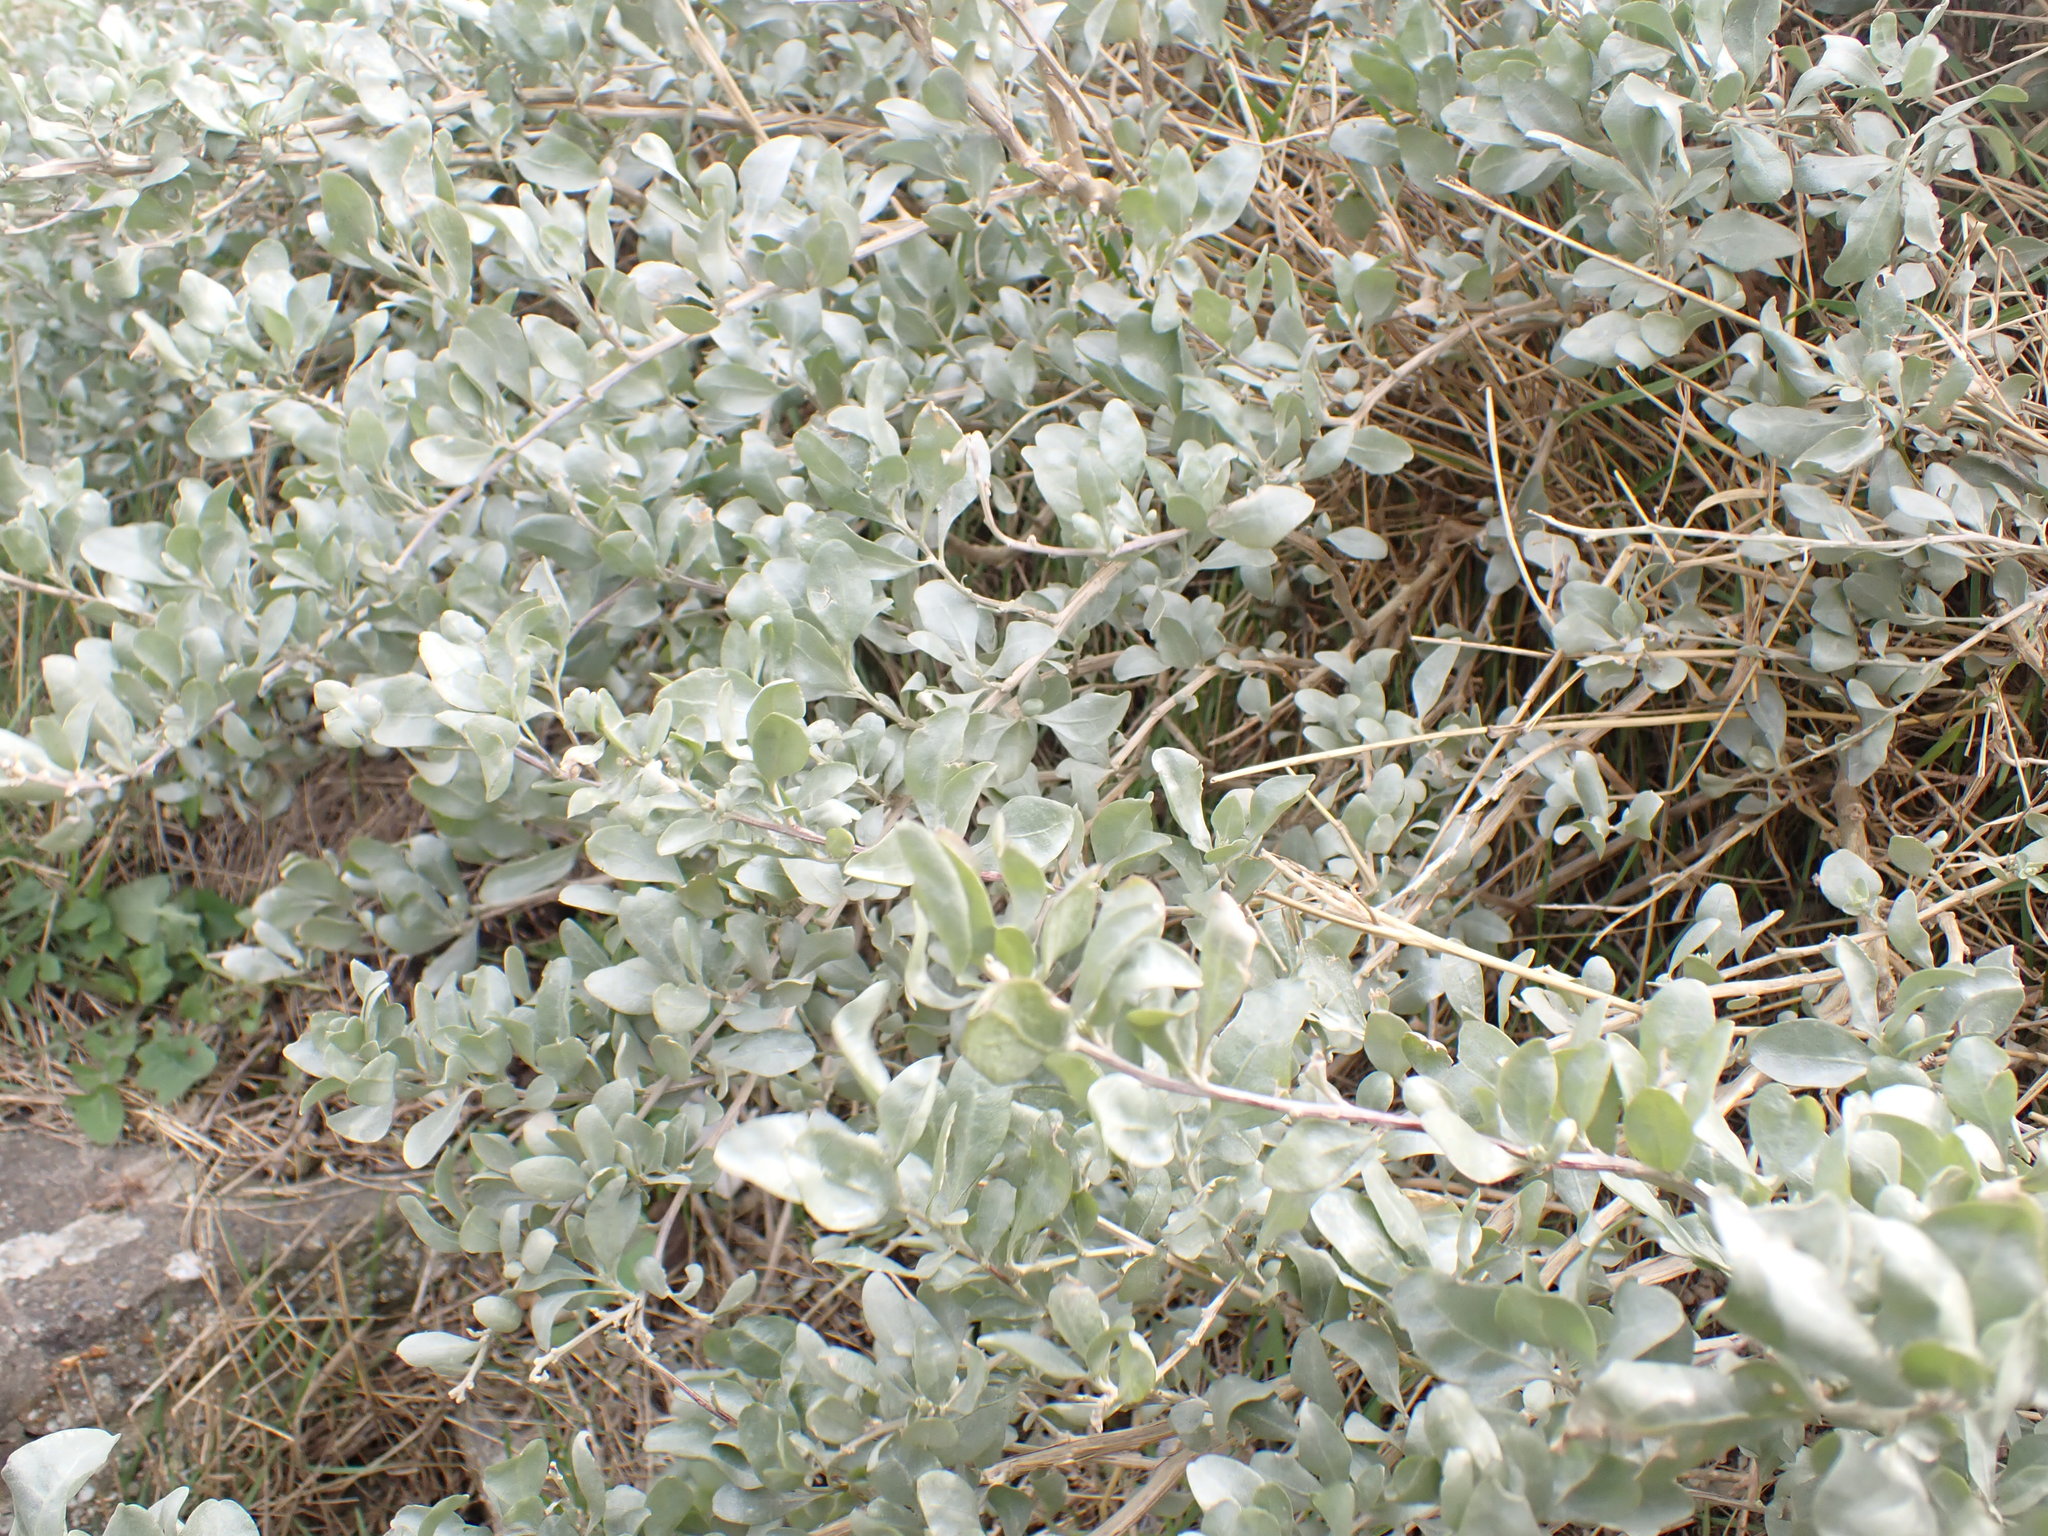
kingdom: Plantae
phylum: Tracheophyta
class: Magnoliopsida
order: Caryophyllales
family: Amaranthaceae
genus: Atriplex
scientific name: Atriplex halimus
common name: Shrubby orache
